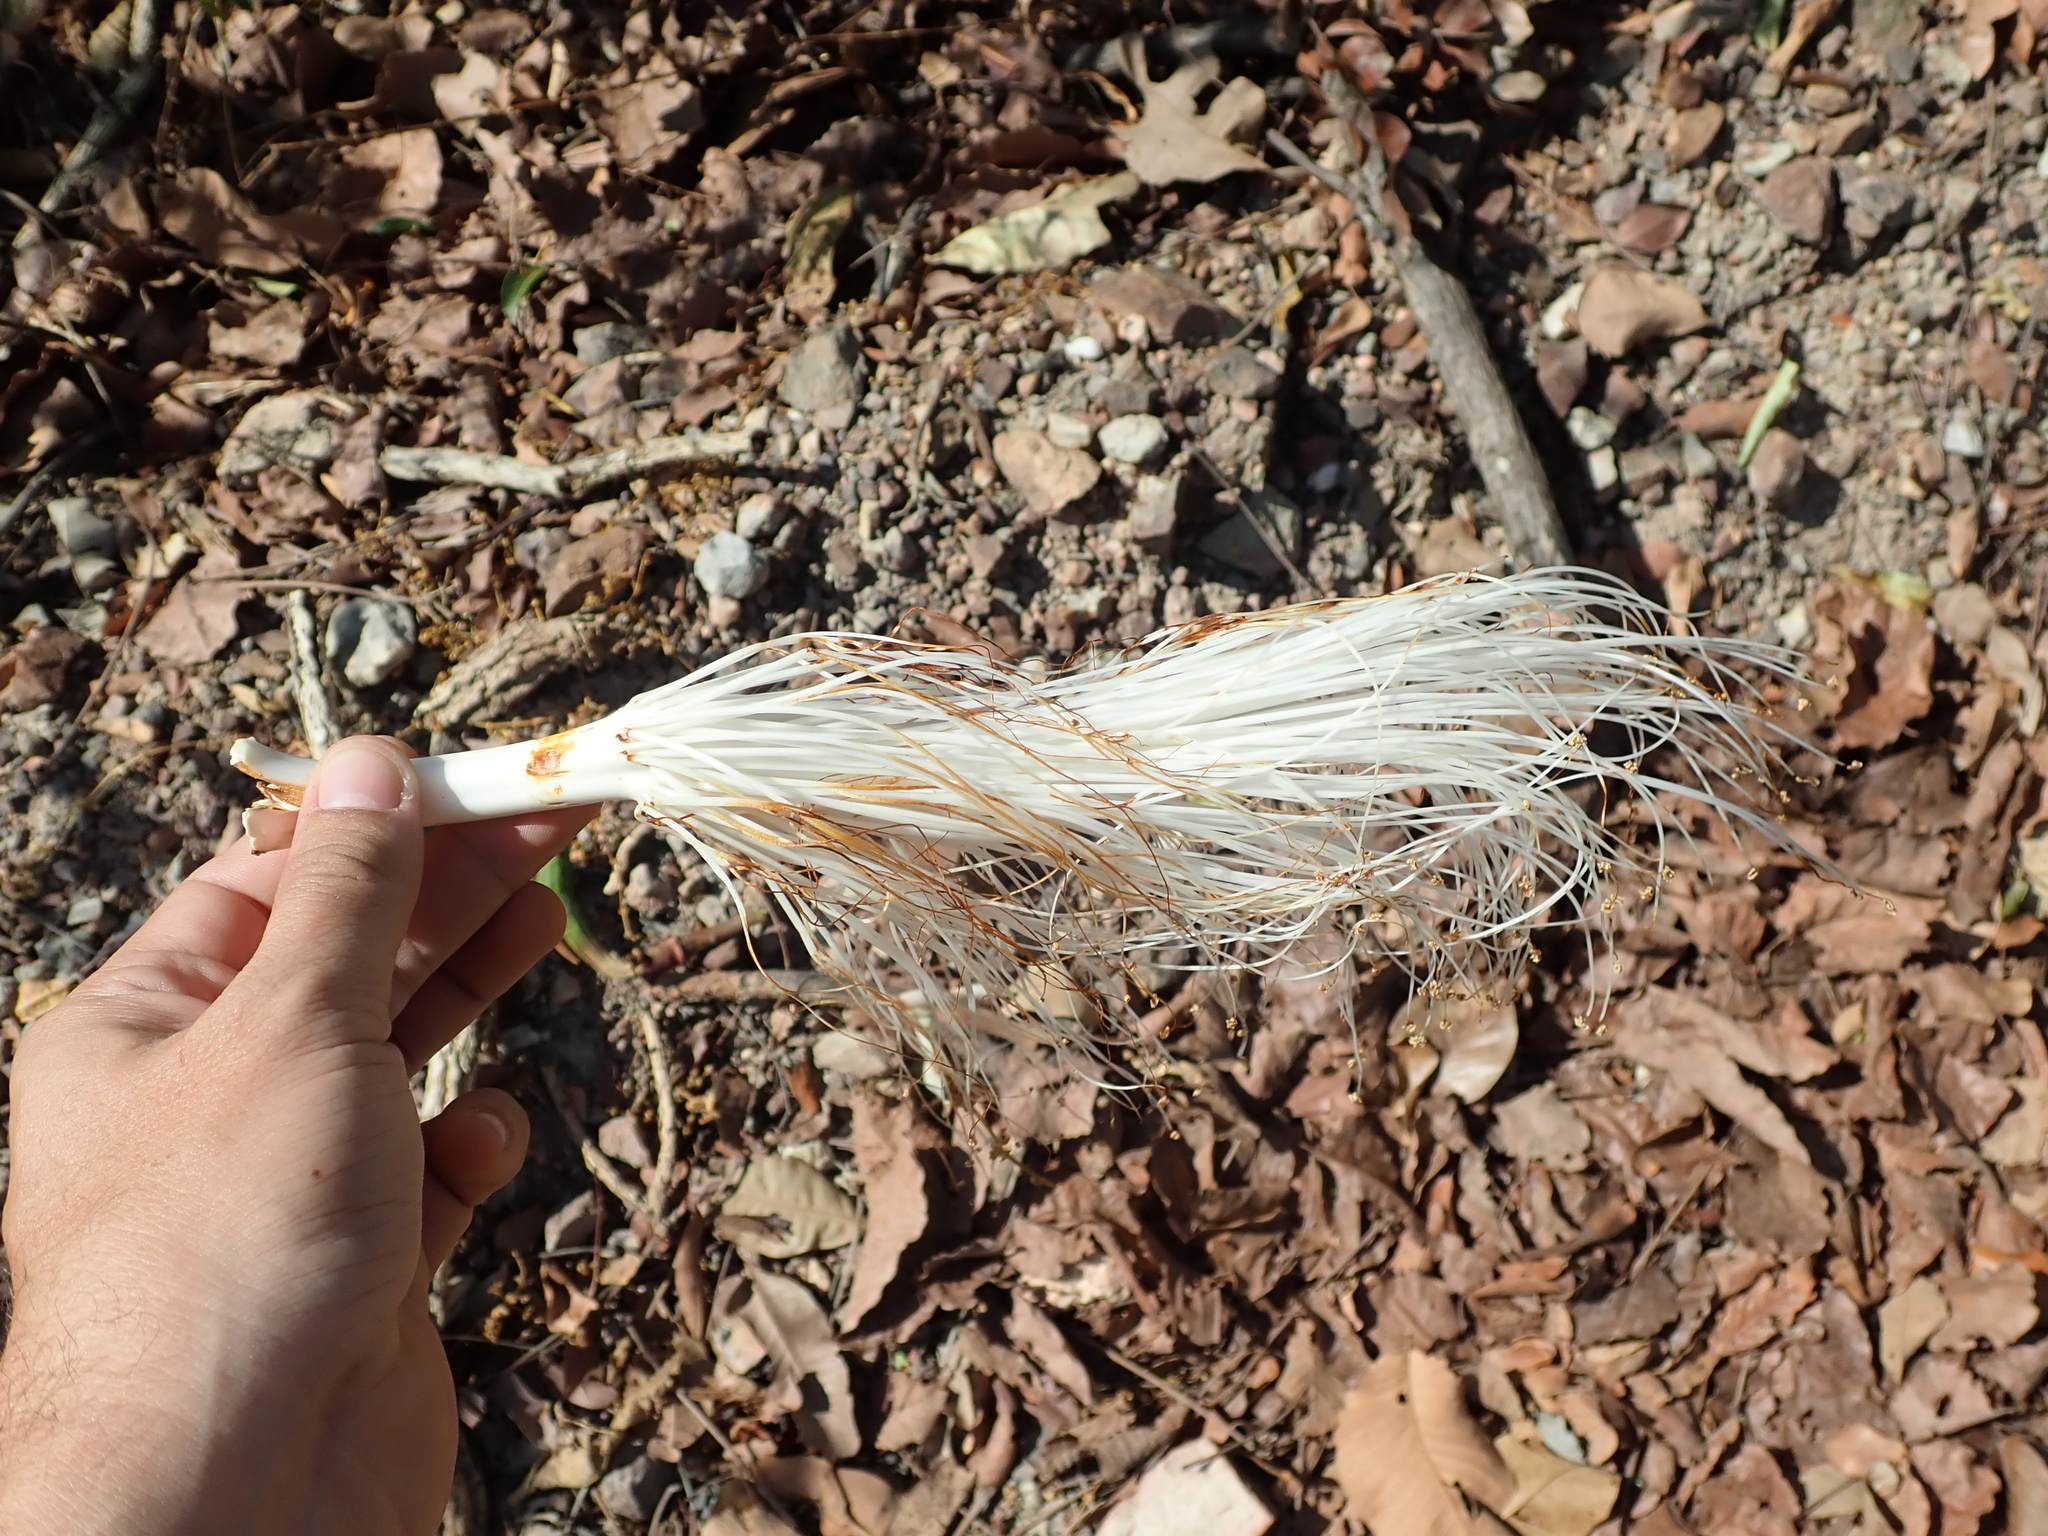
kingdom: Plantae
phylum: Tracheophyta
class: Magnoliopsida
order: Malvales
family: Malvaceae
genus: Pseudobombax
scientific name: Pseudobombax longiflorum
